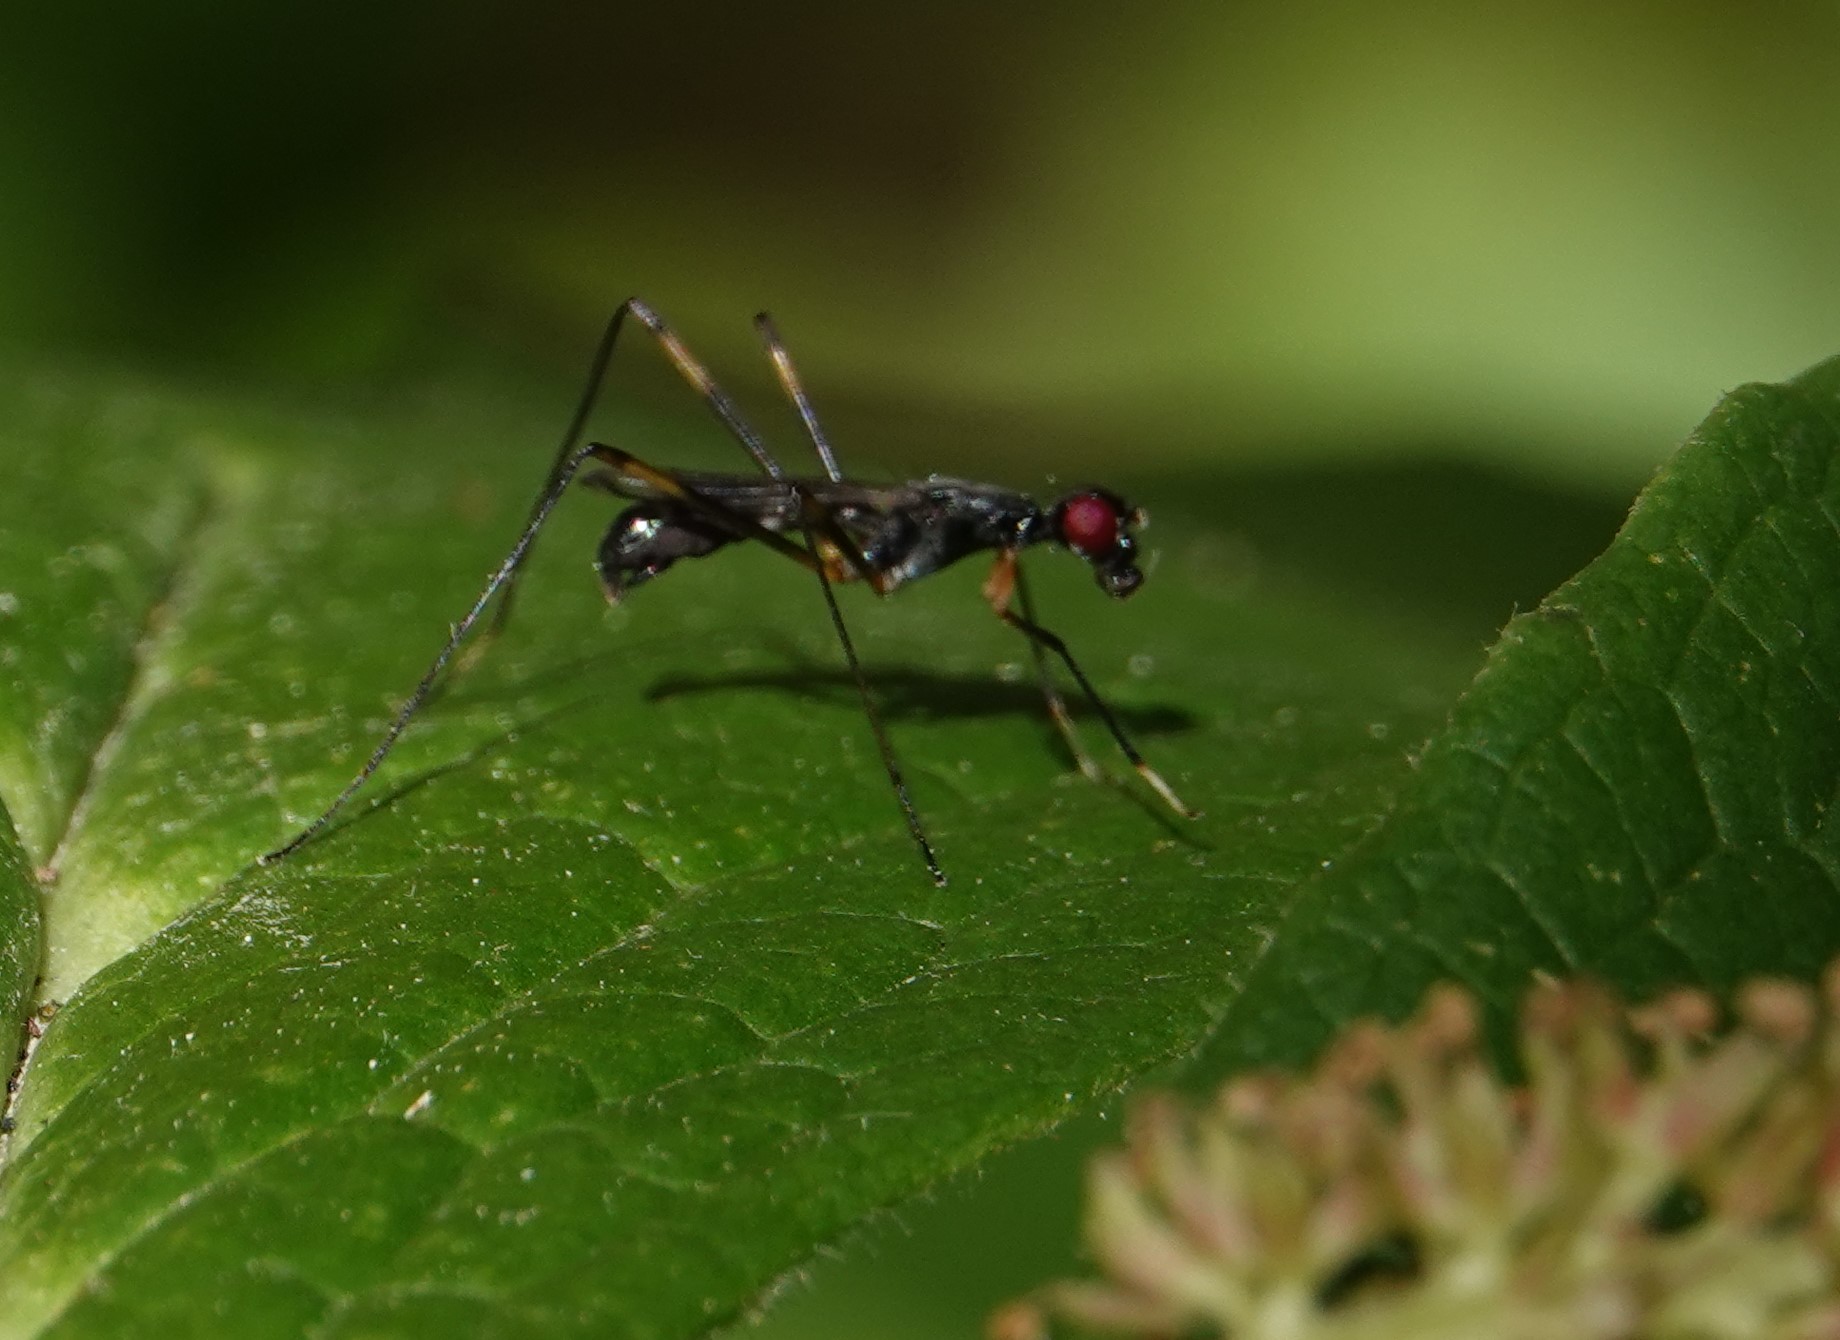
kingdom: Animalia
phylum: Arthropoda
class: Insecta
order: Diptera
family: Micropezidae
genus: Rainieria
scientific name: Rainieria antennaepes
